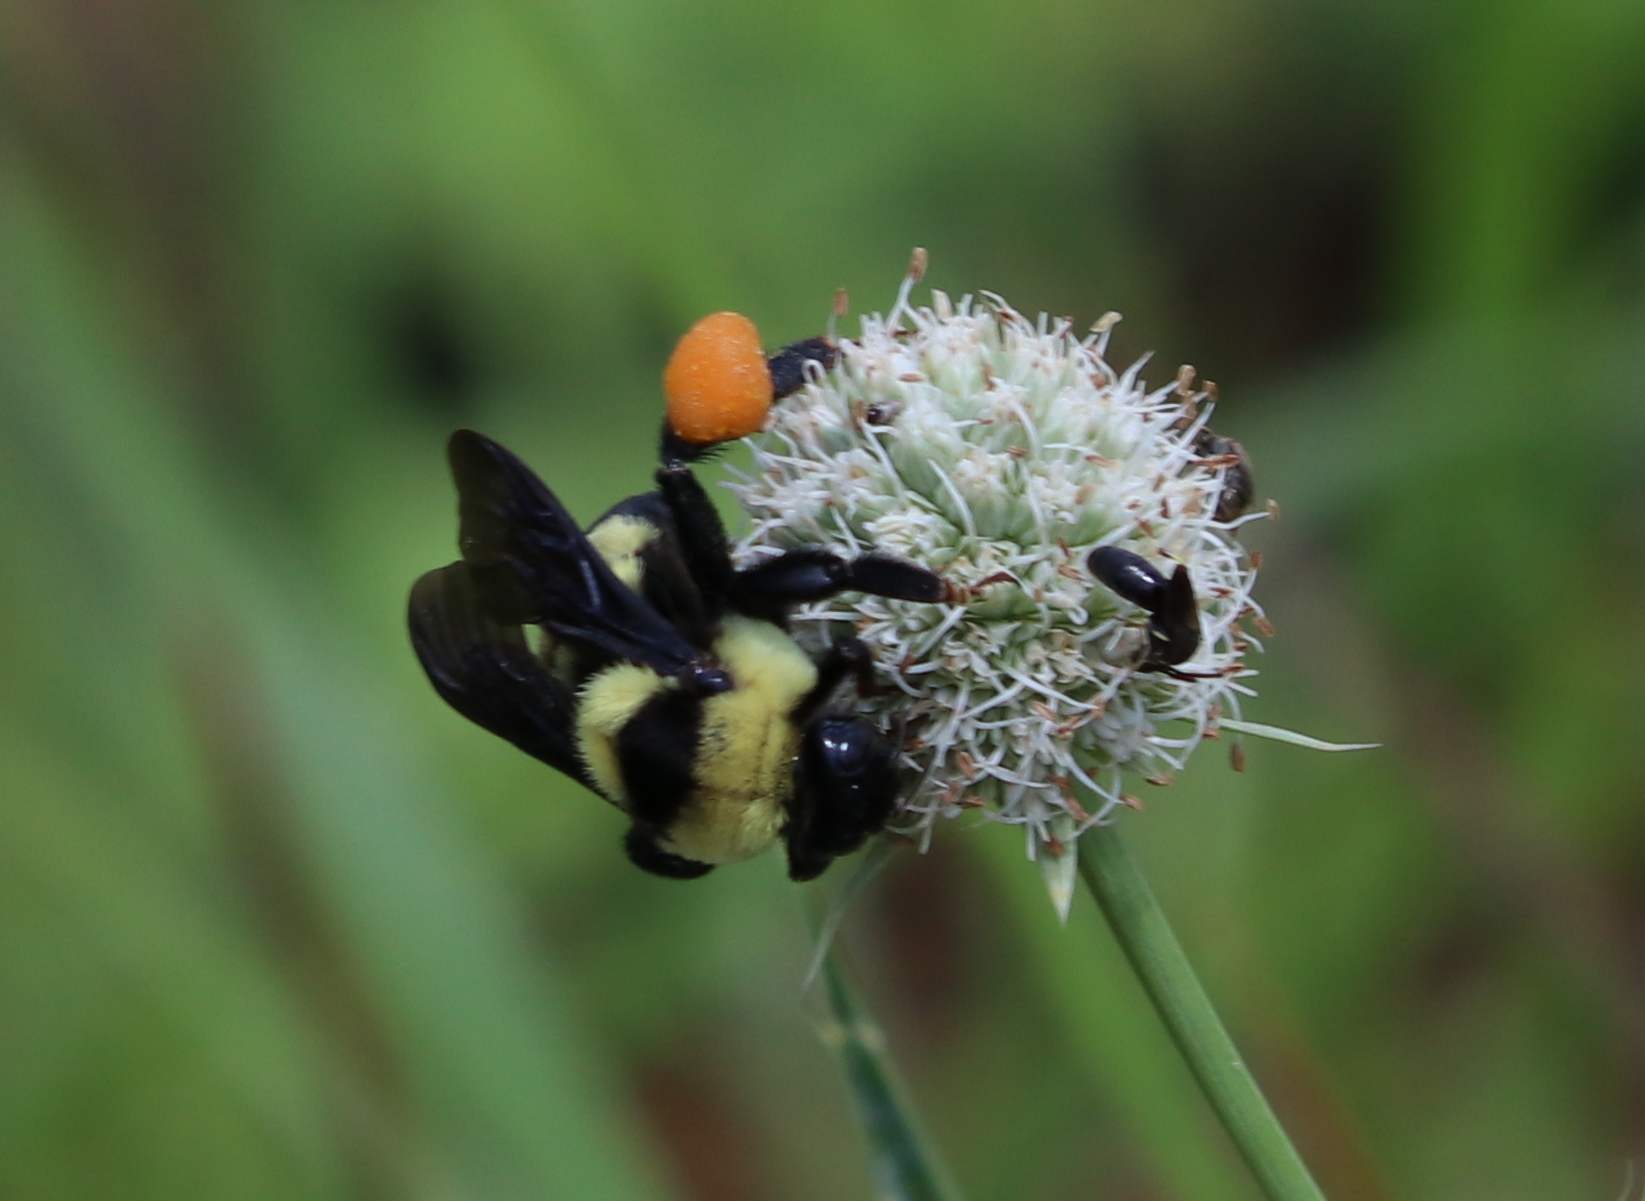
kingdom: Animalia
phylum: Arthropoda
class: Insecta
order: Hymenoptera
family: Apidae
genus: Bombus
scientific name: Bombus fraternus
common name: Southern plains bumble bee
